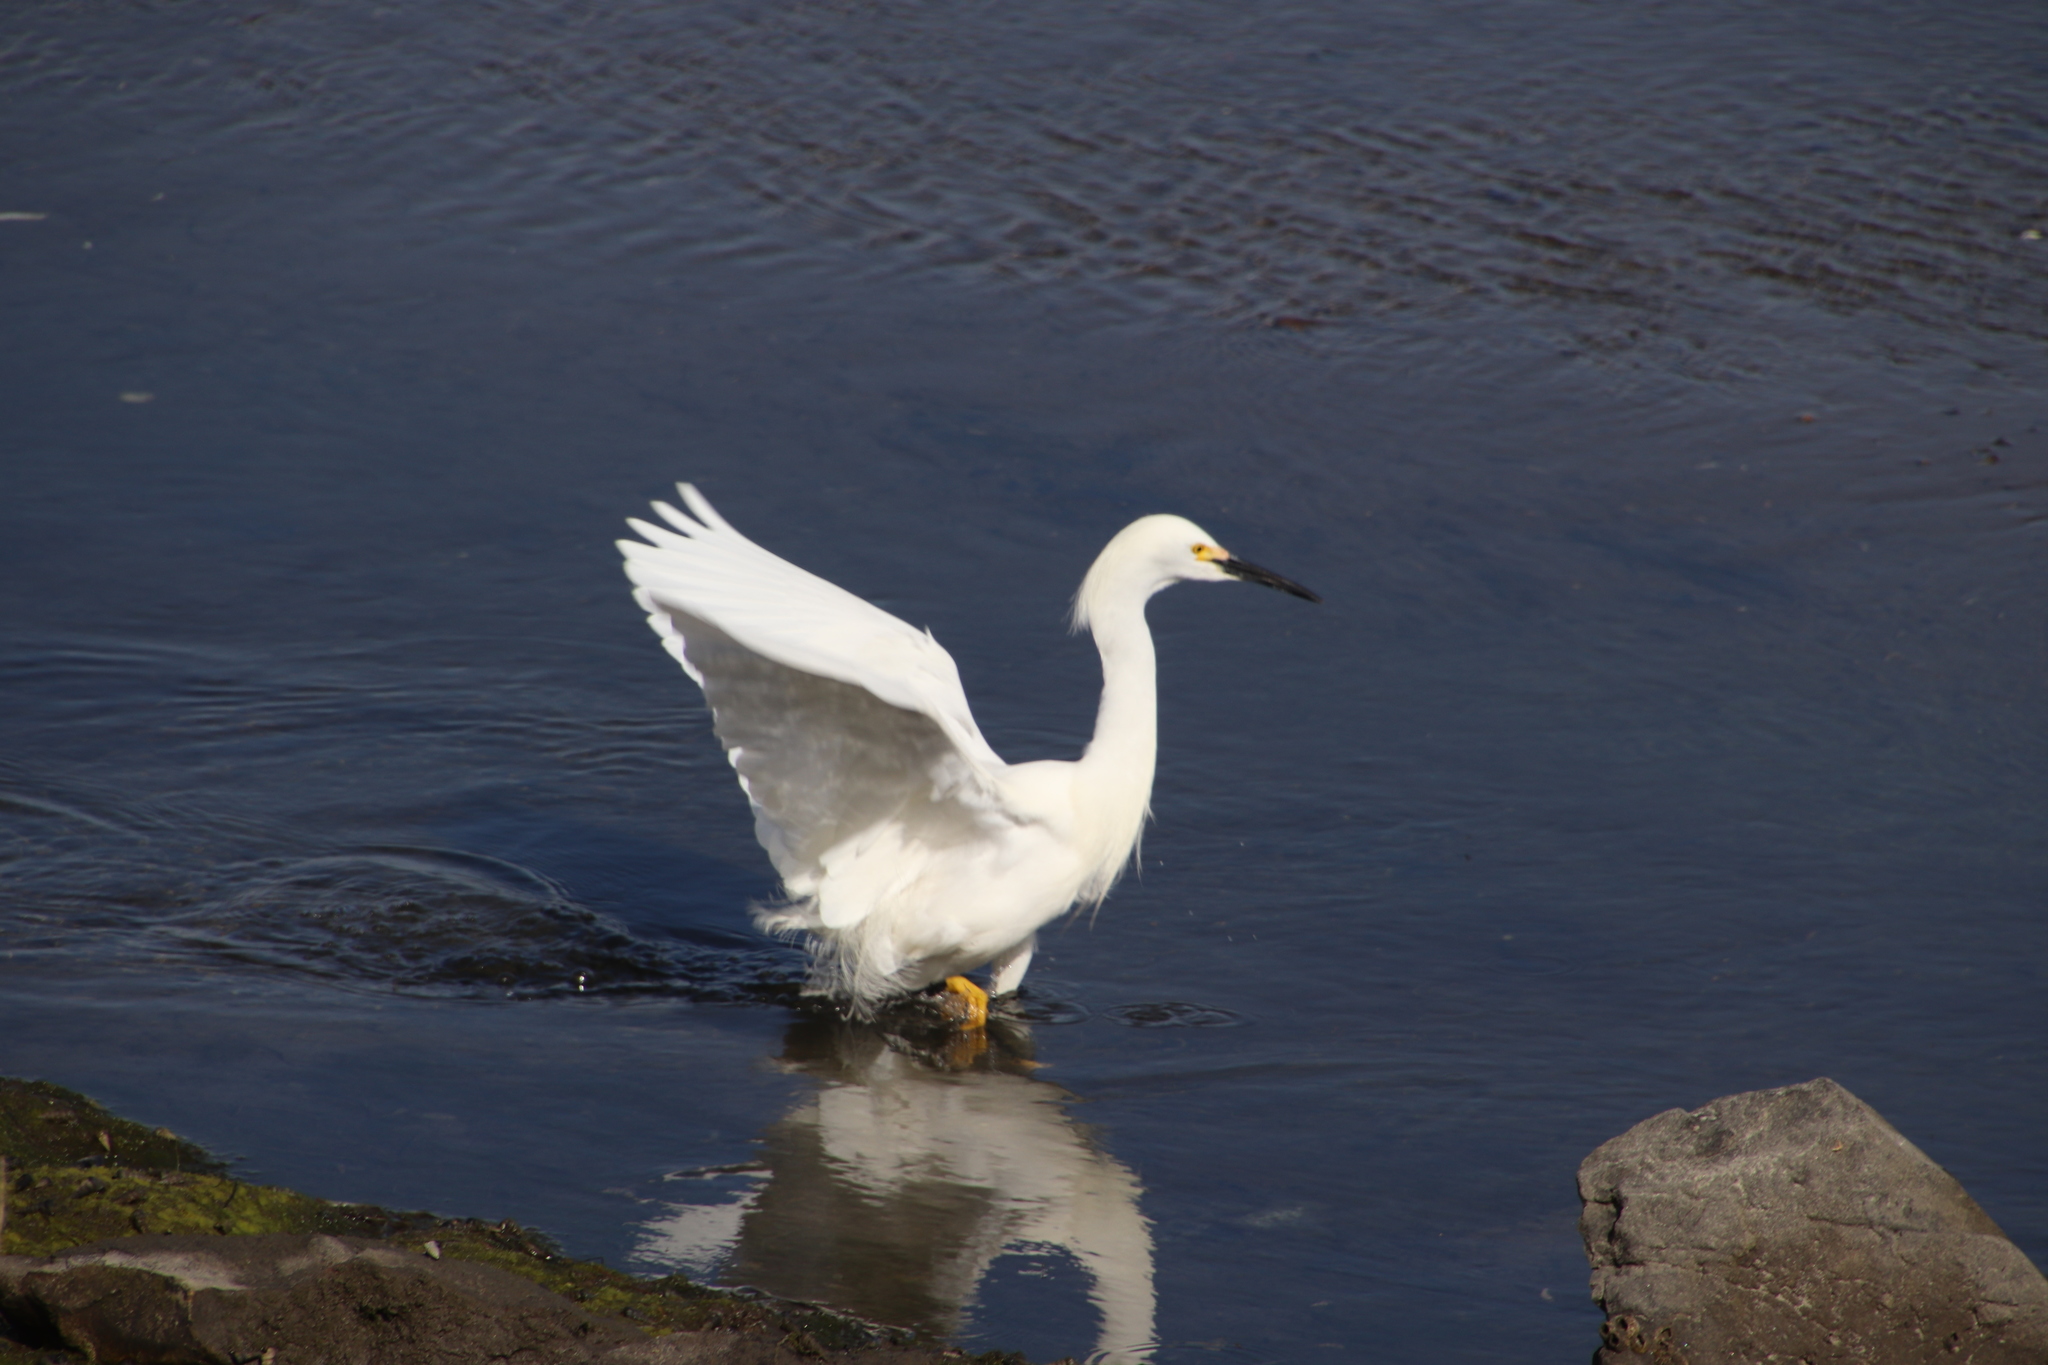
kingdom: Animalia
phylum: Chordata
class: Aves
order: Pelecaniformes
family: Ardeidae
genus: Egretta
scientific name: Egretta thula
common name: Snowy egret
